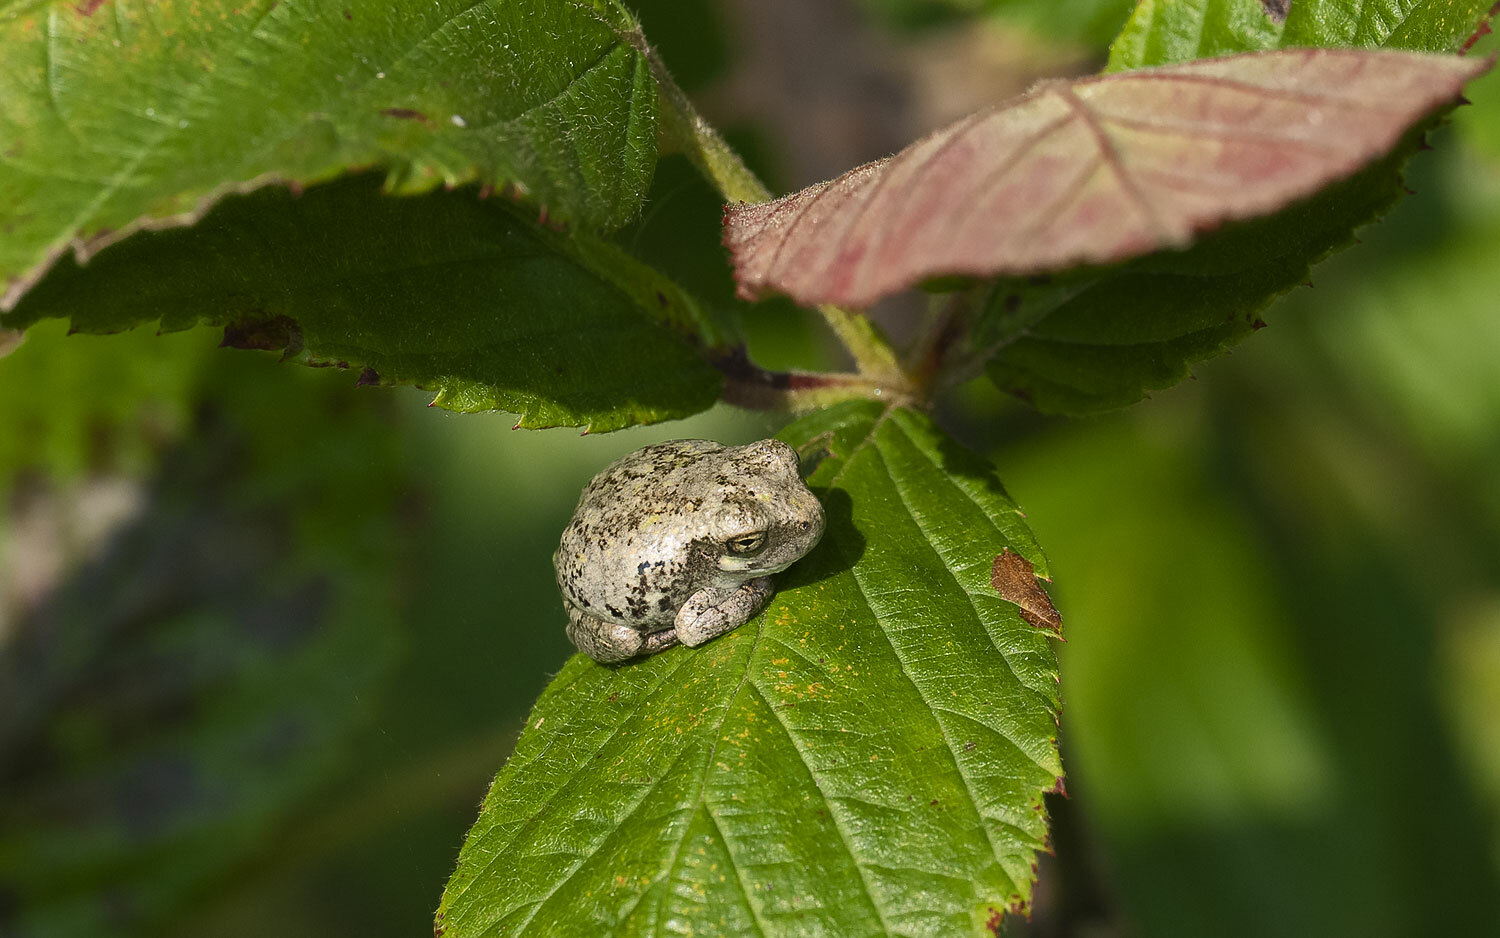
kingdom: Animalia
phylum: Chordata
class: Amphibia
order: Anura
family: Hylidae
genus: Hyla
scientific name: Hyla
